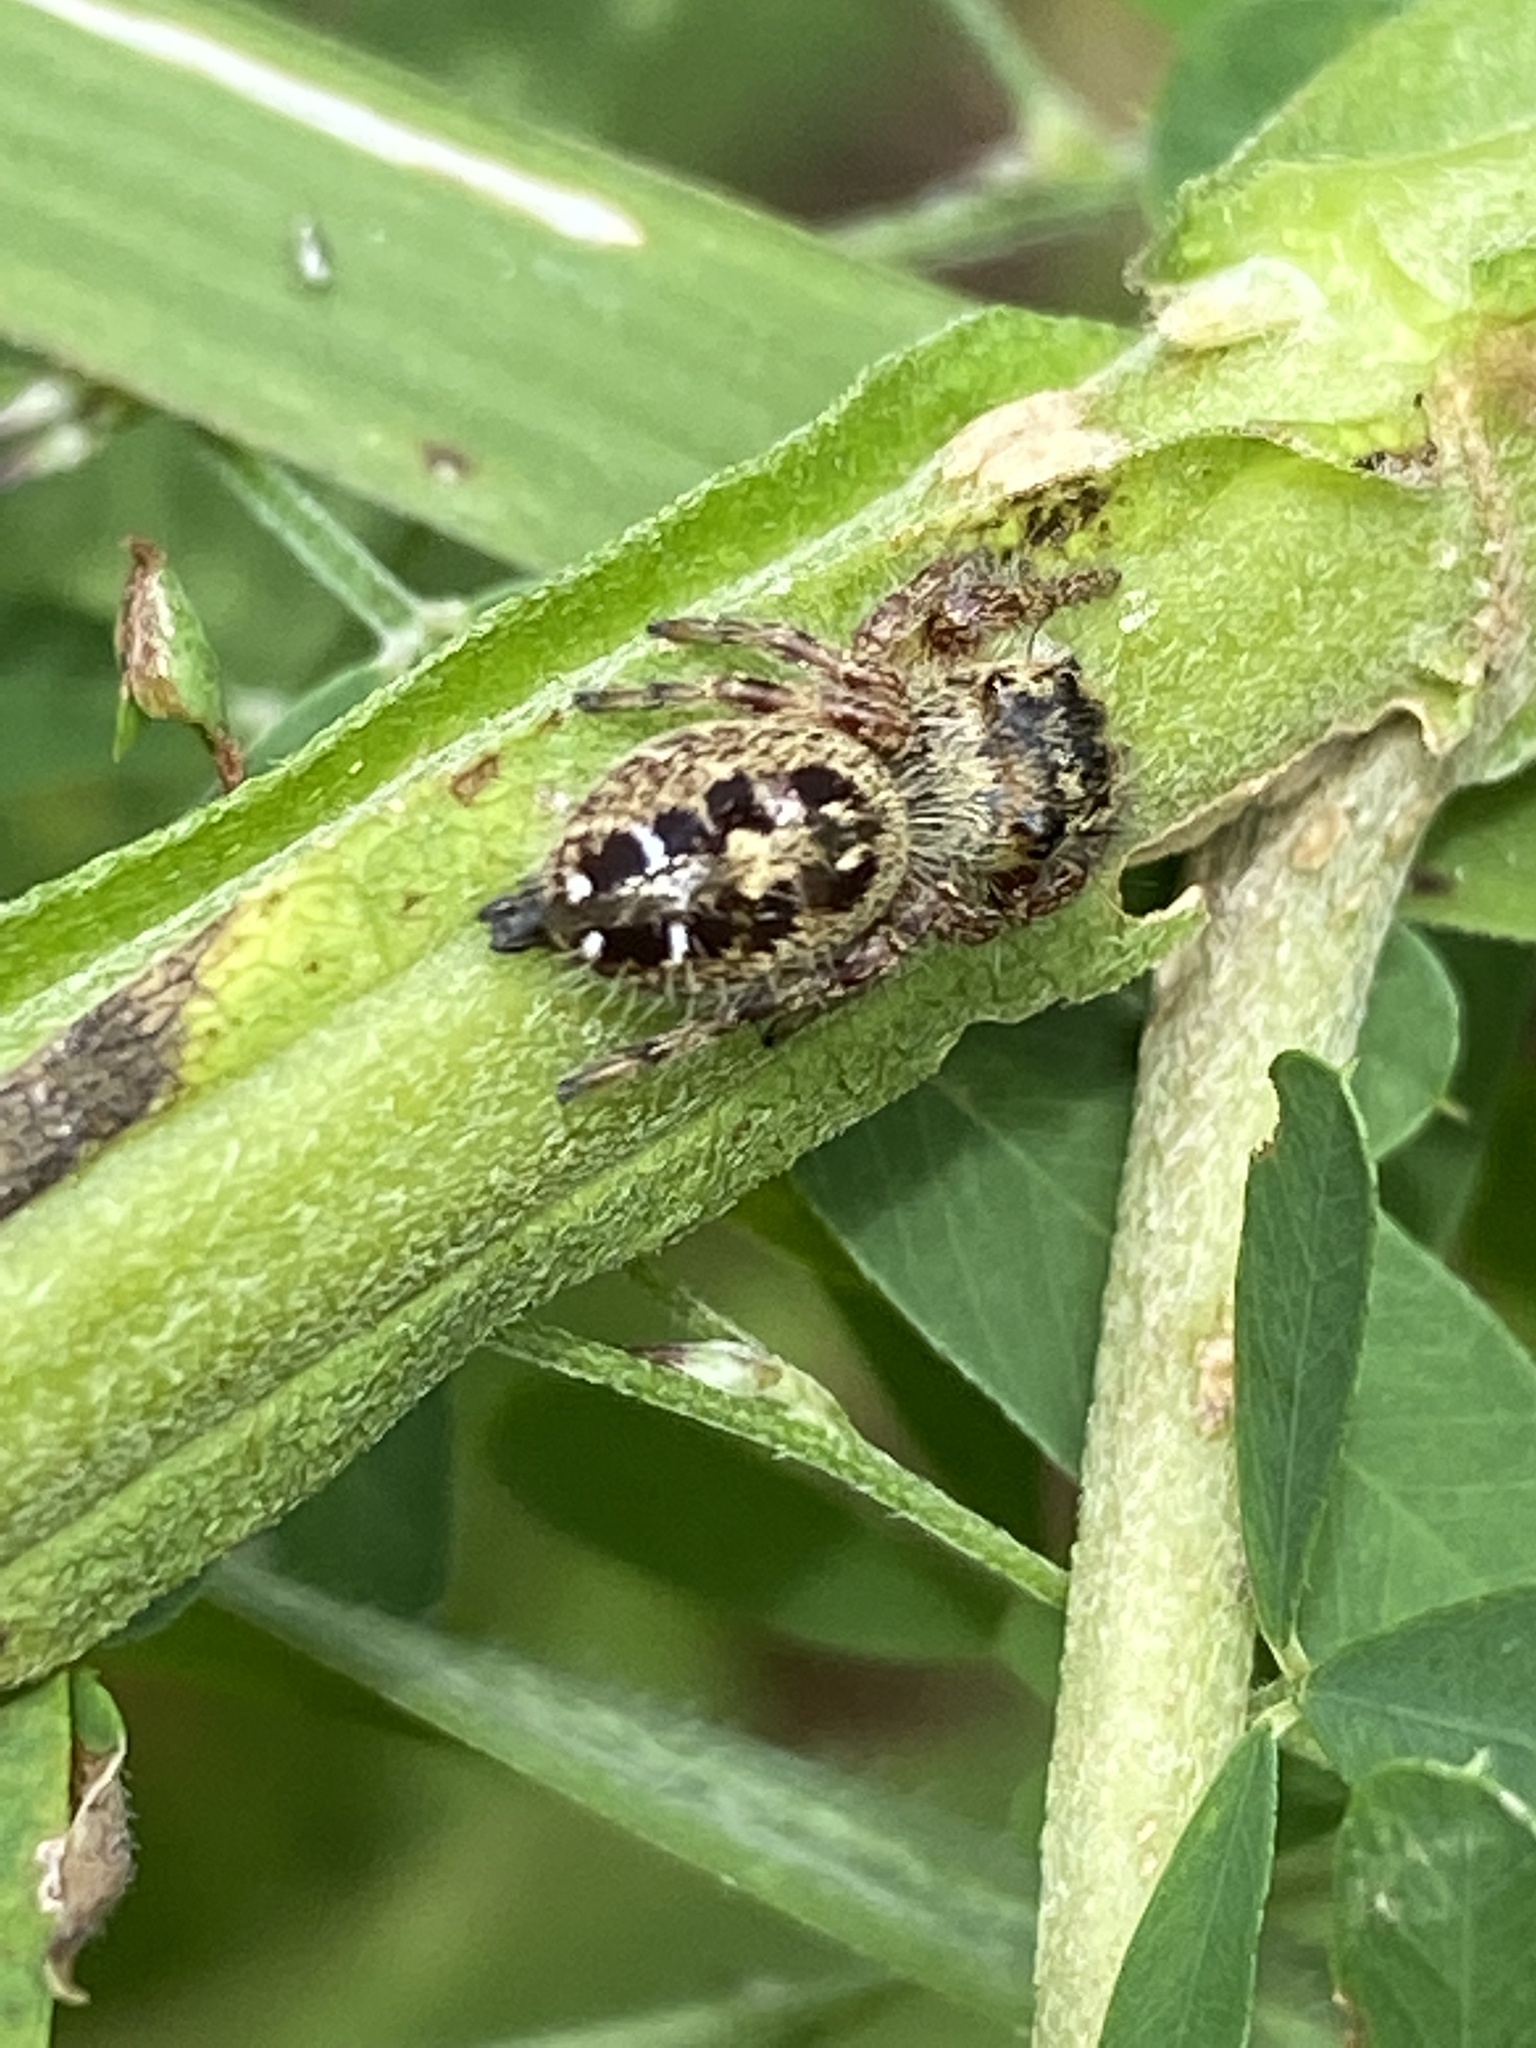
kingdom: Animalia
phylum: Arthropoda
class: Arachnida
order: Araneae
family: Salticidae
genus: Phidippus
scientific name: Phidippus princeps
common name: Grayish jumping spider
